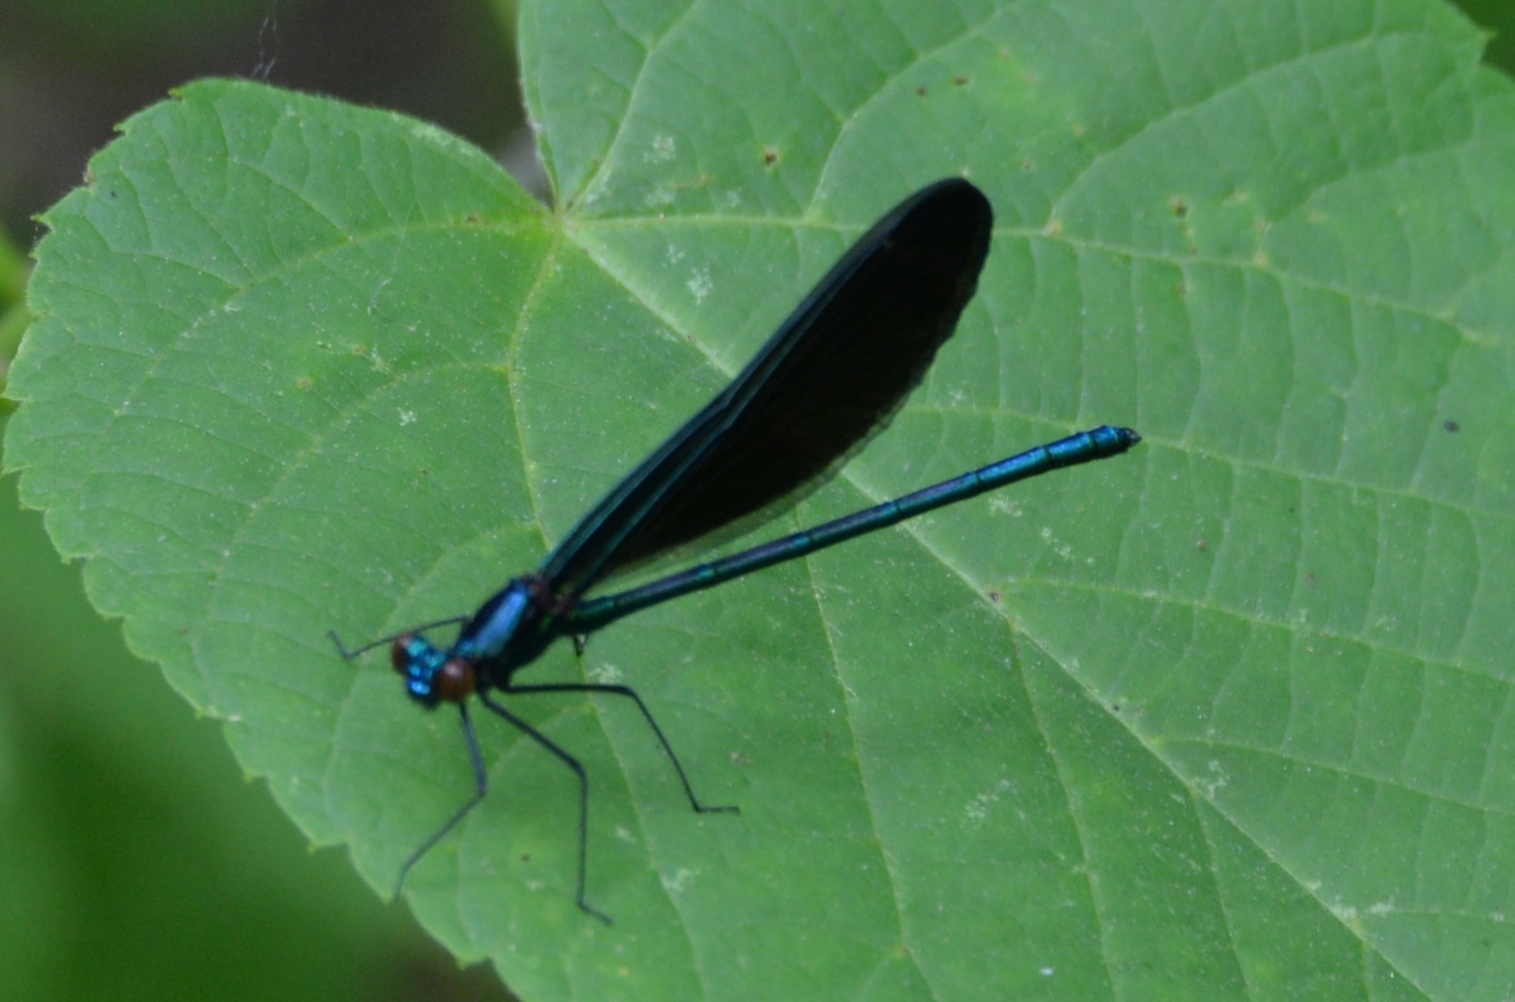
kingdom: Animalia
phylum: Arthropoda
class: Insecta
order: Odonata
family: Calopterygidae
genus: Calopteryx
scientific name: Calopteryx maculata
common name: Ebony jewelwing
